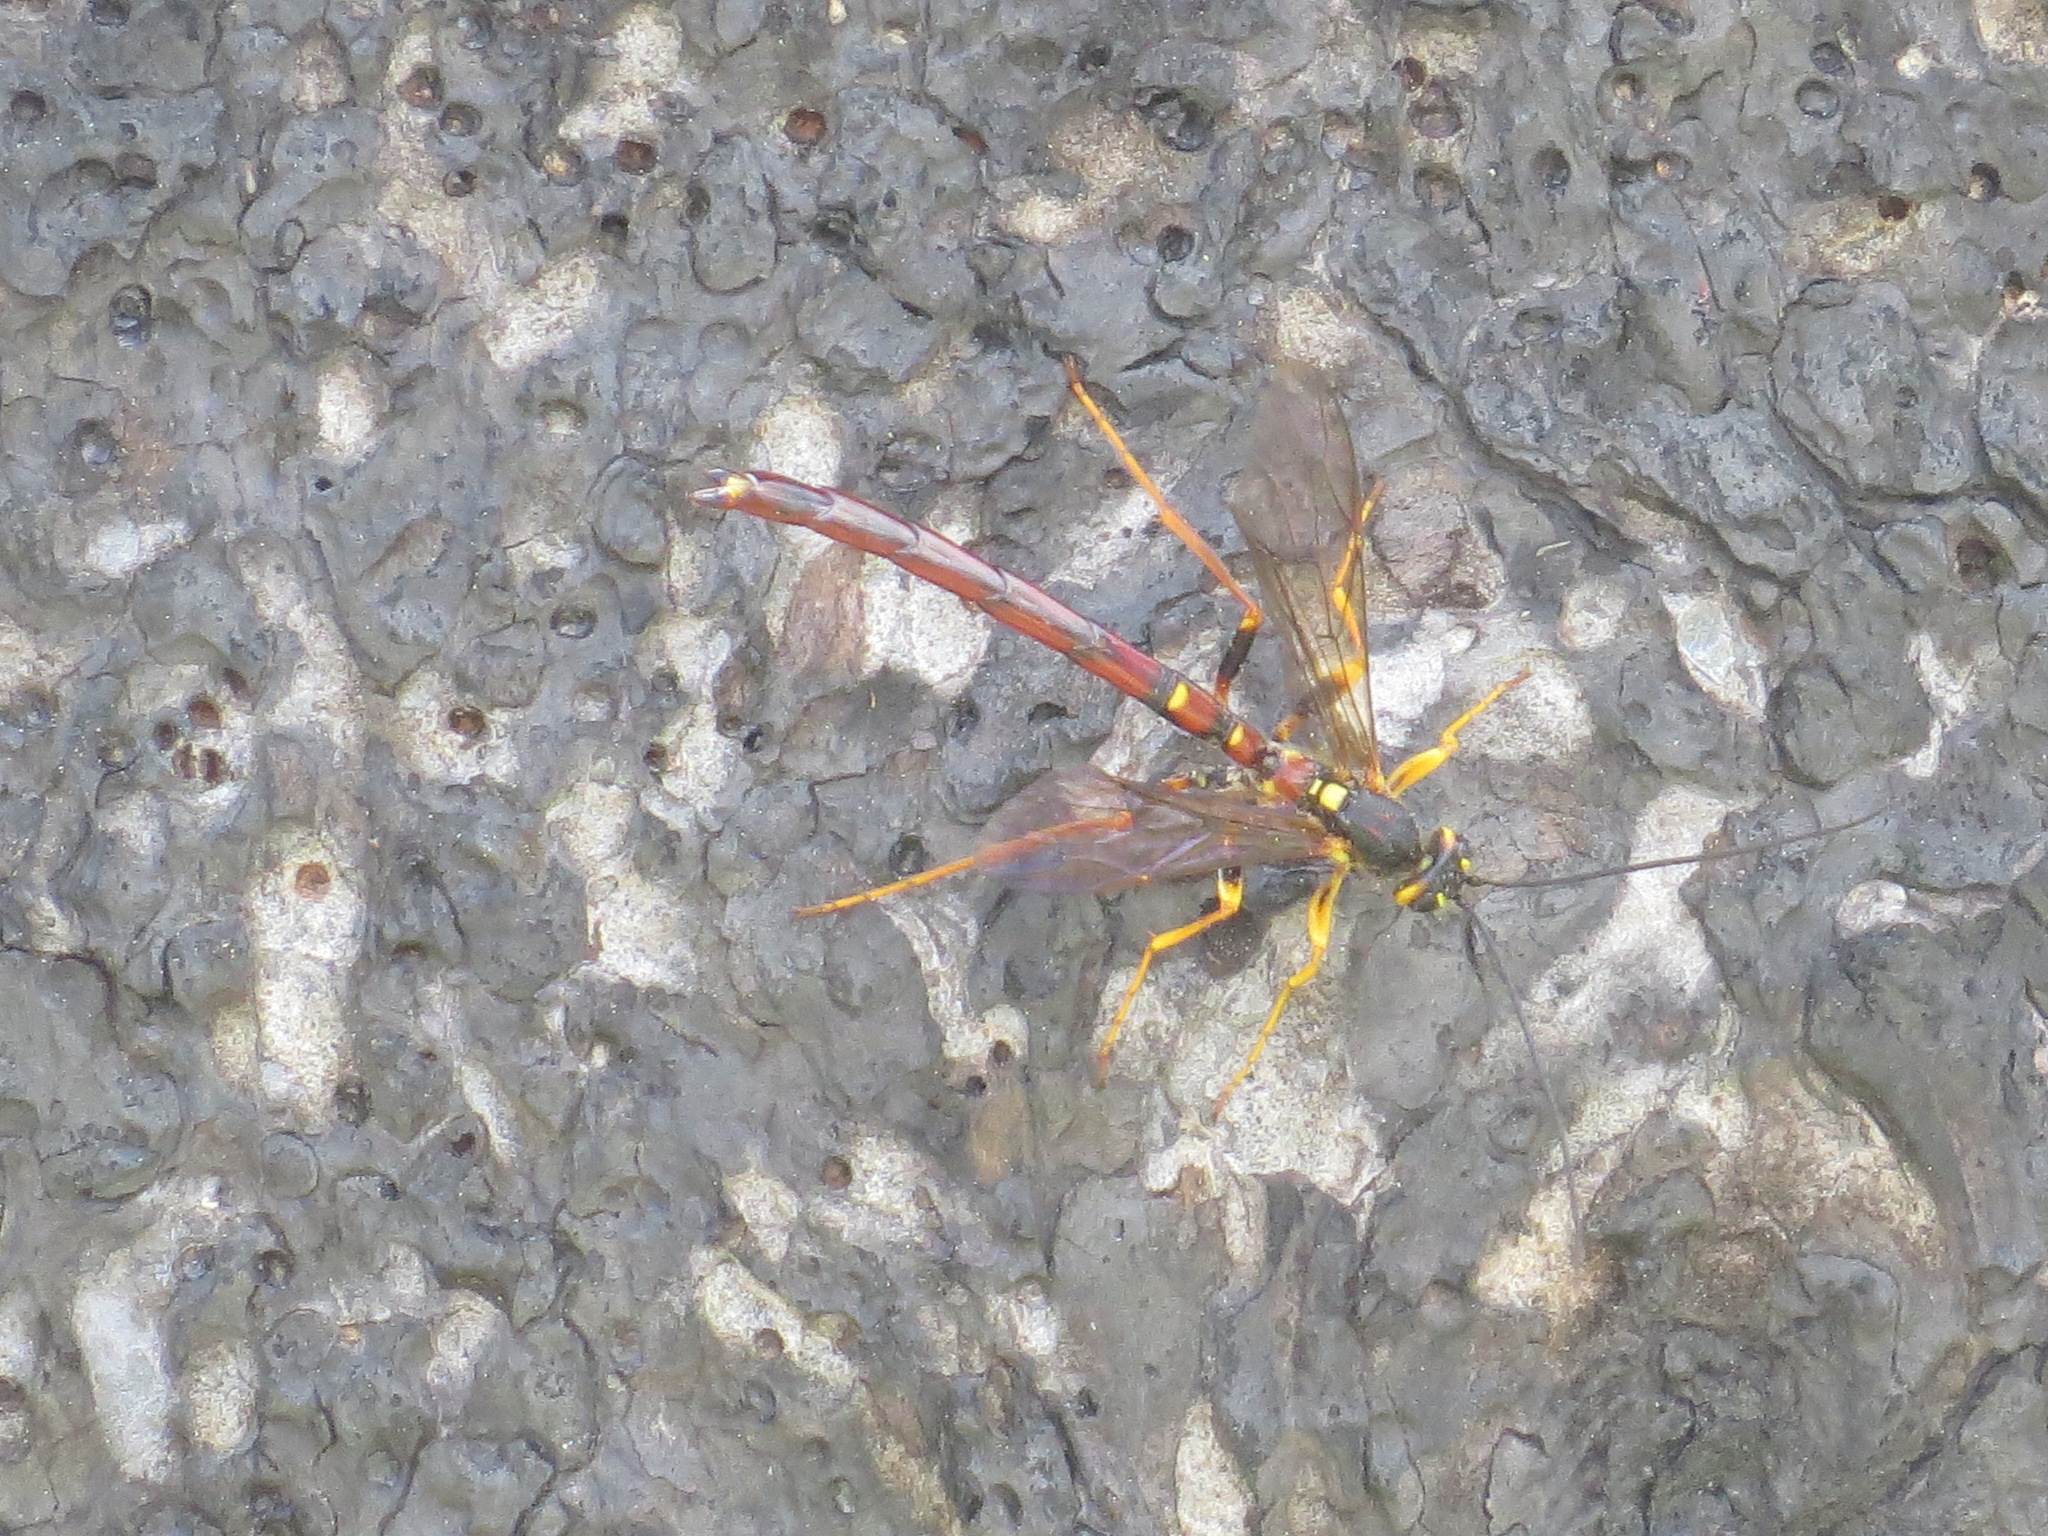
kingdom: Animalia
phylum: Arthropoda
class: Insecta
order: Hymenoptera
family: Ichneumonidae
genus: Megarhyssa
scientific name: Megarhyssa nortoni
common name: Norton's giant ichneumonid wasp
